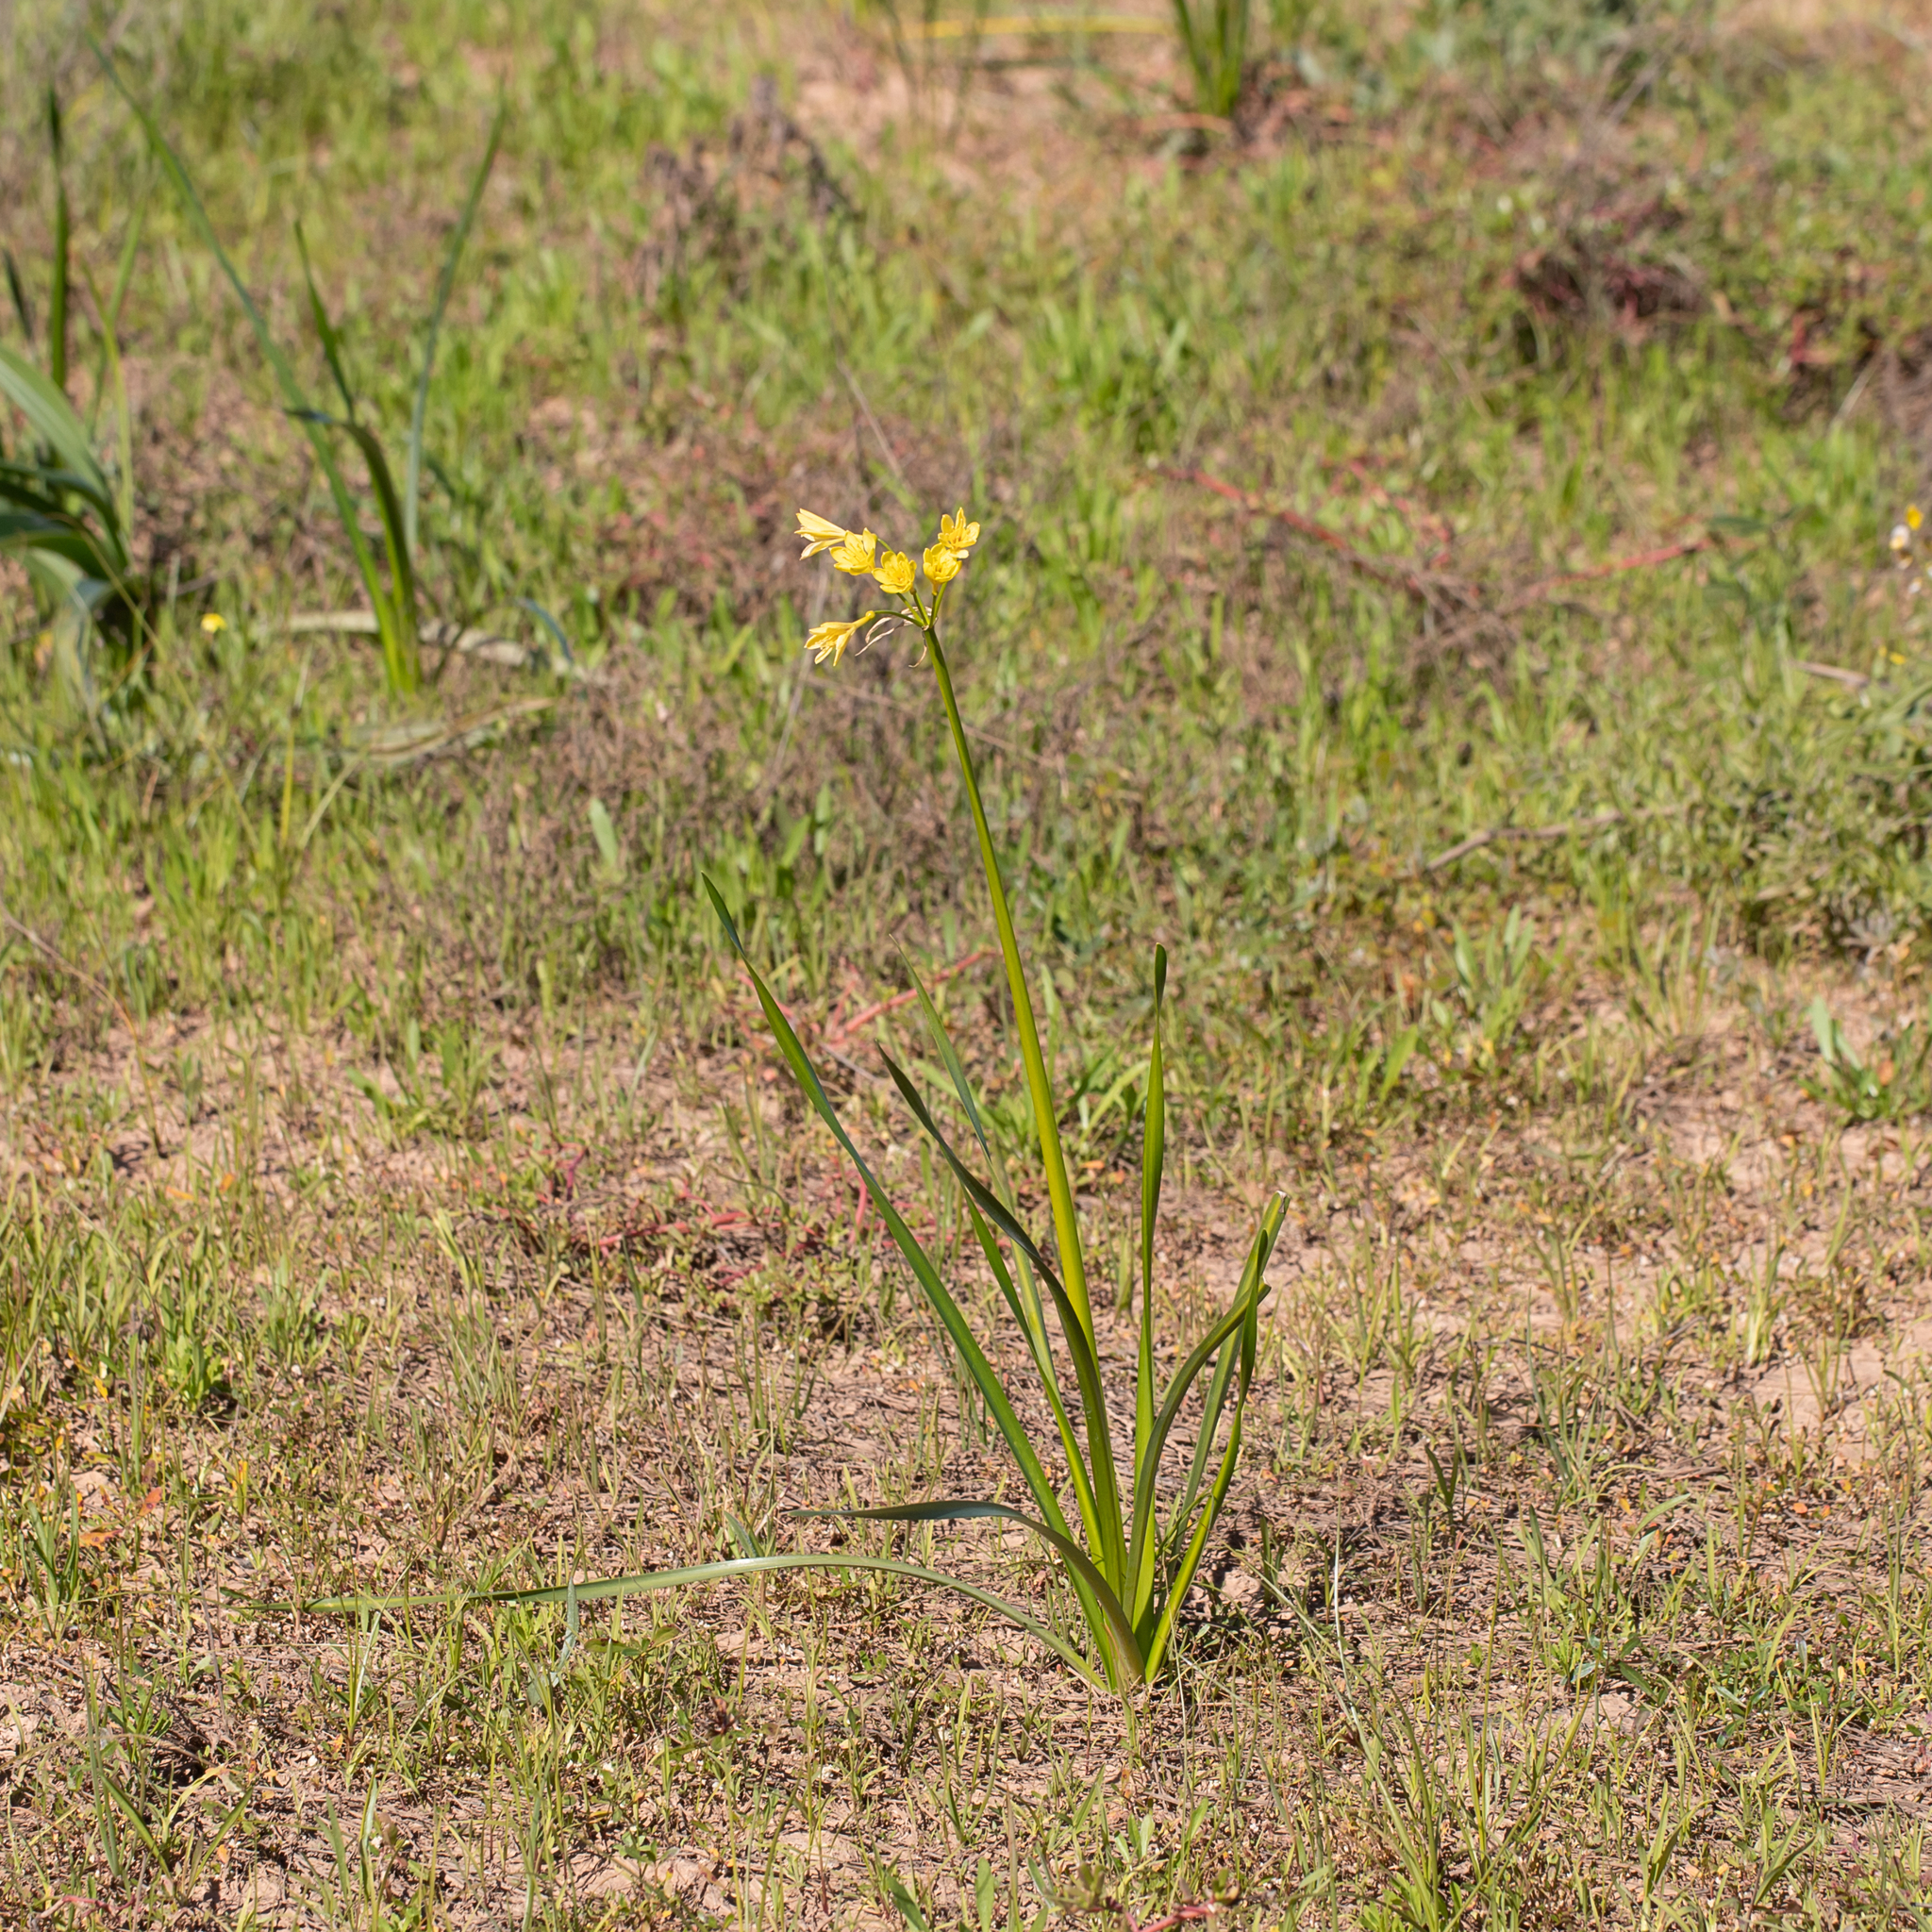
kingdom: Plantae
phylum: Tracheophyta
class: Liliopsida
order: Asparagales
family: Amaryllidaceae
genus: Calostemma
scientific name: Calostemma luteum
